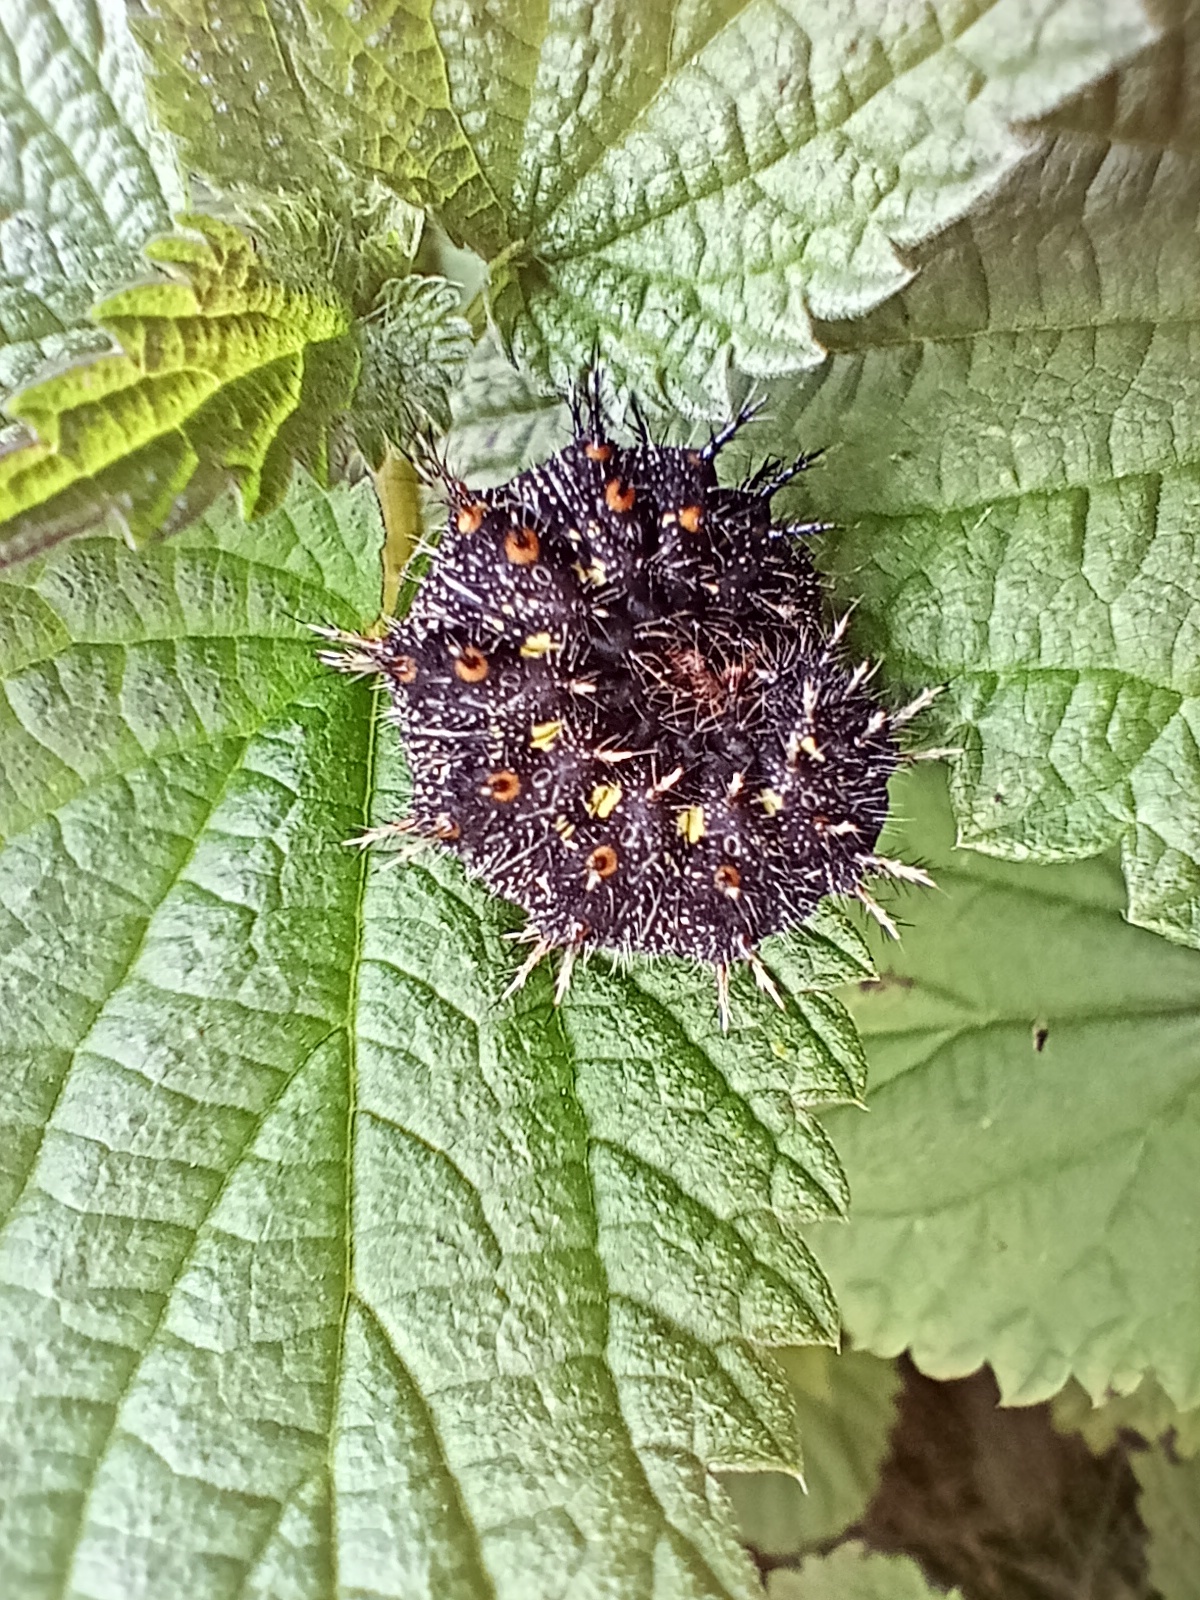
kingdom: Animalia
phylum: Arthropoda
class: Insecta
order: Lepidoptera
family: Nymphalidae
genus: Vanessa
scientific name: Vanessa atalanta
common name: Red admiral
